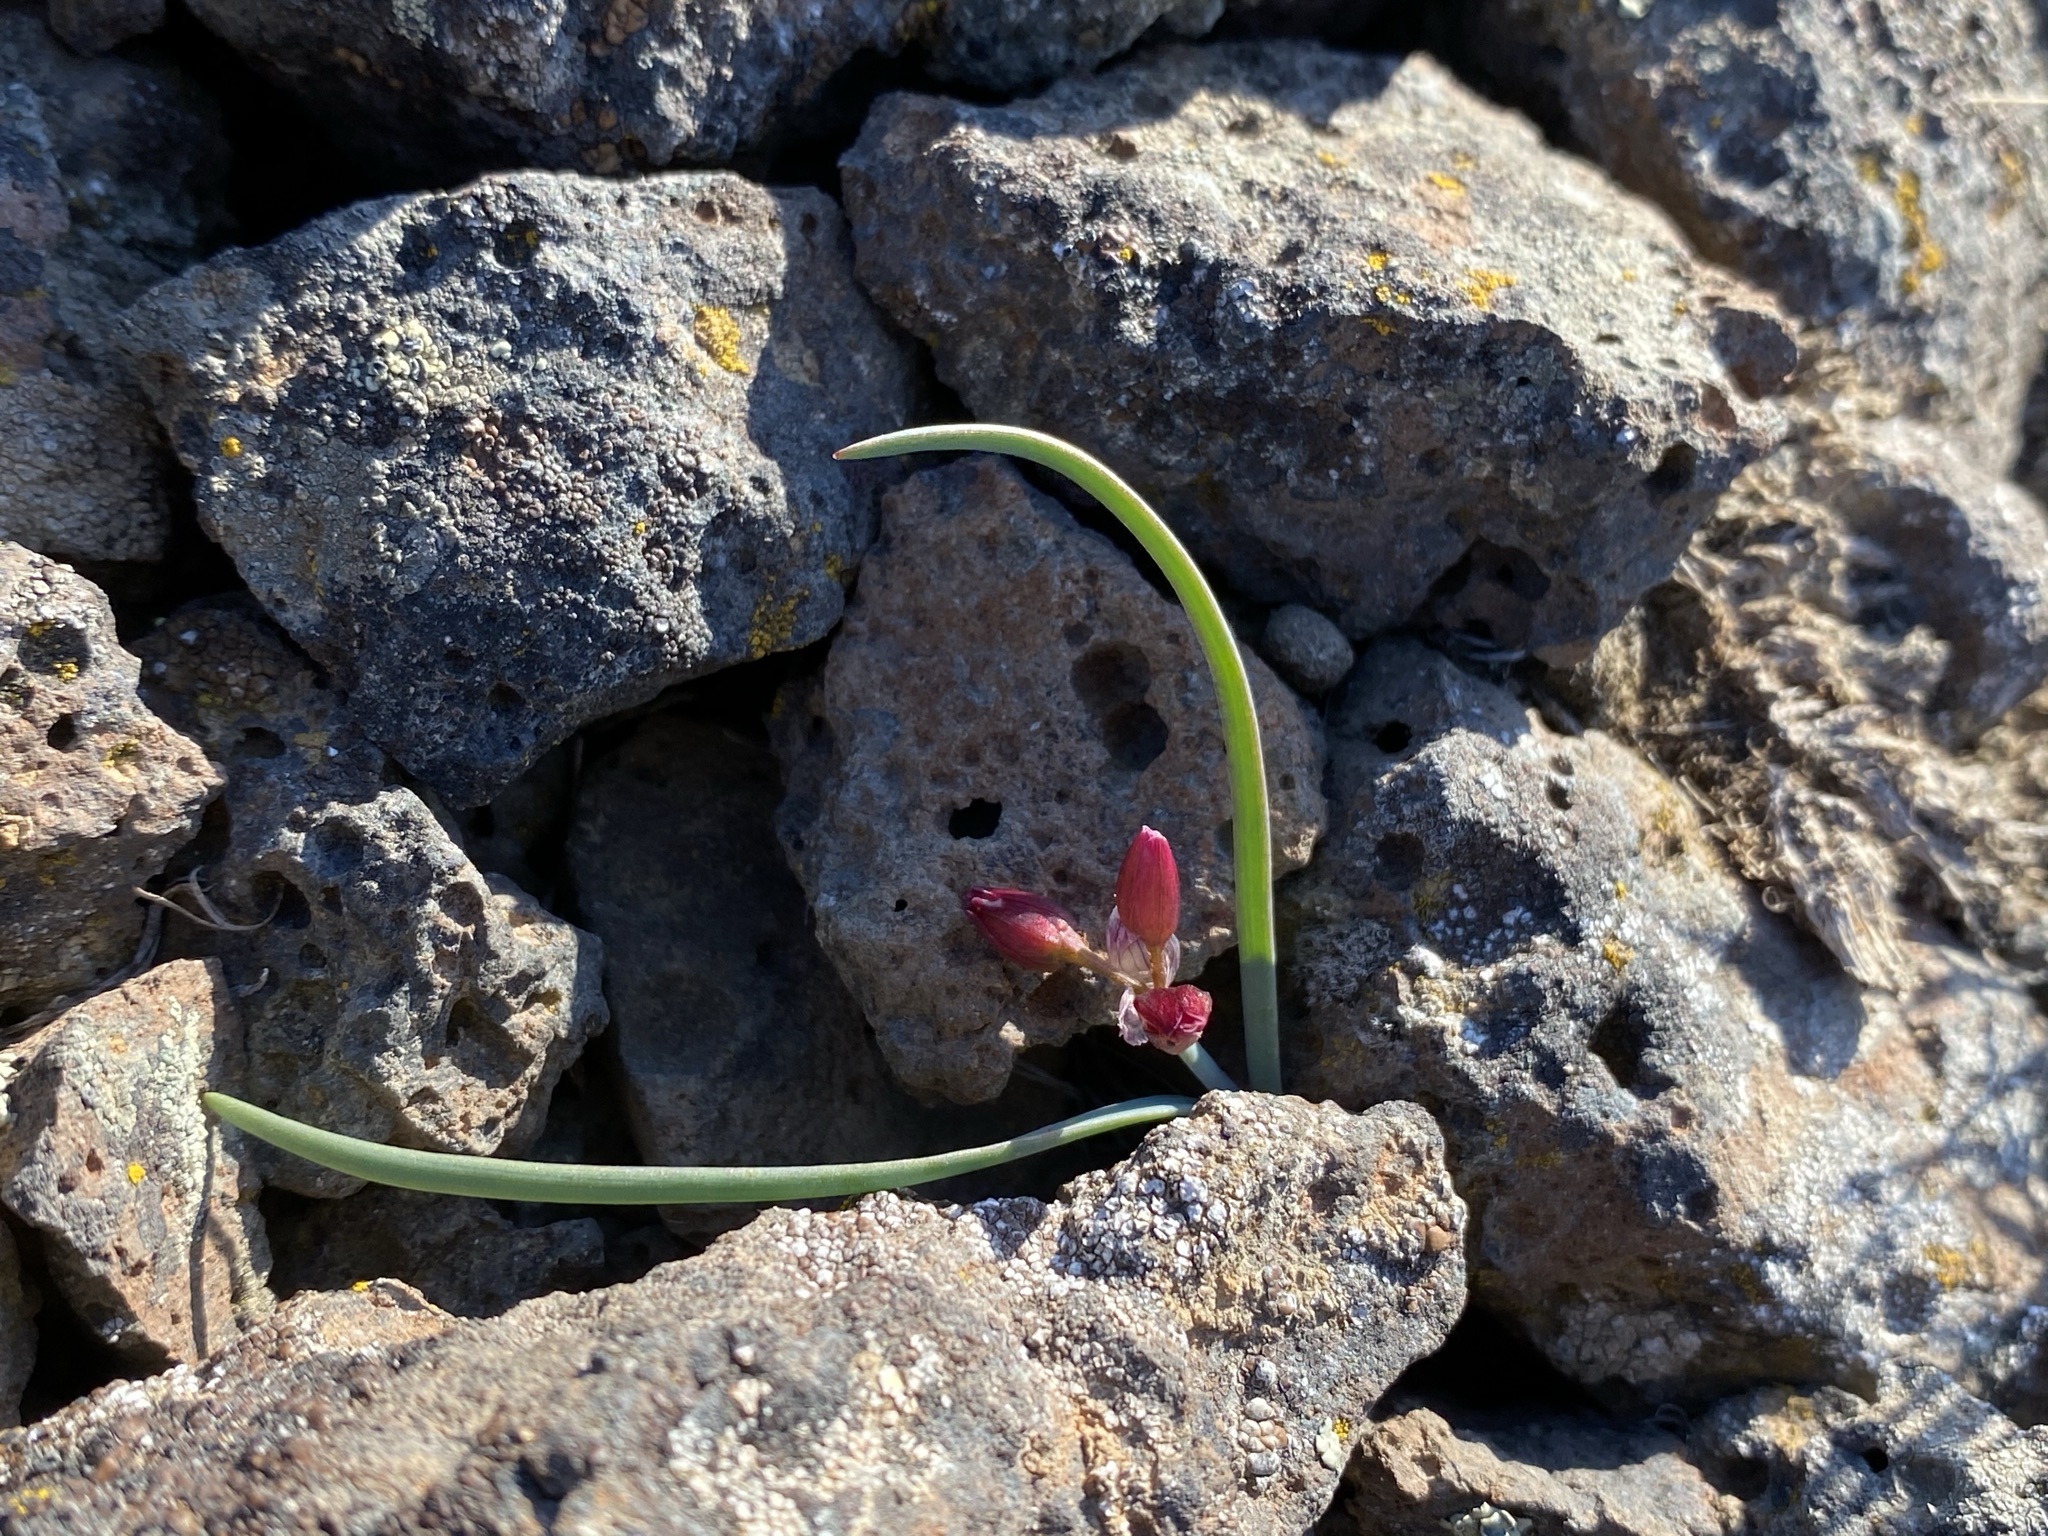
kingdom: Plantae
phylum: Tracheophyta
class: Liliopsida
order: Asparagales
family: Amaryllidaceae
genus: Allium
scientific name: Allium scilloides
